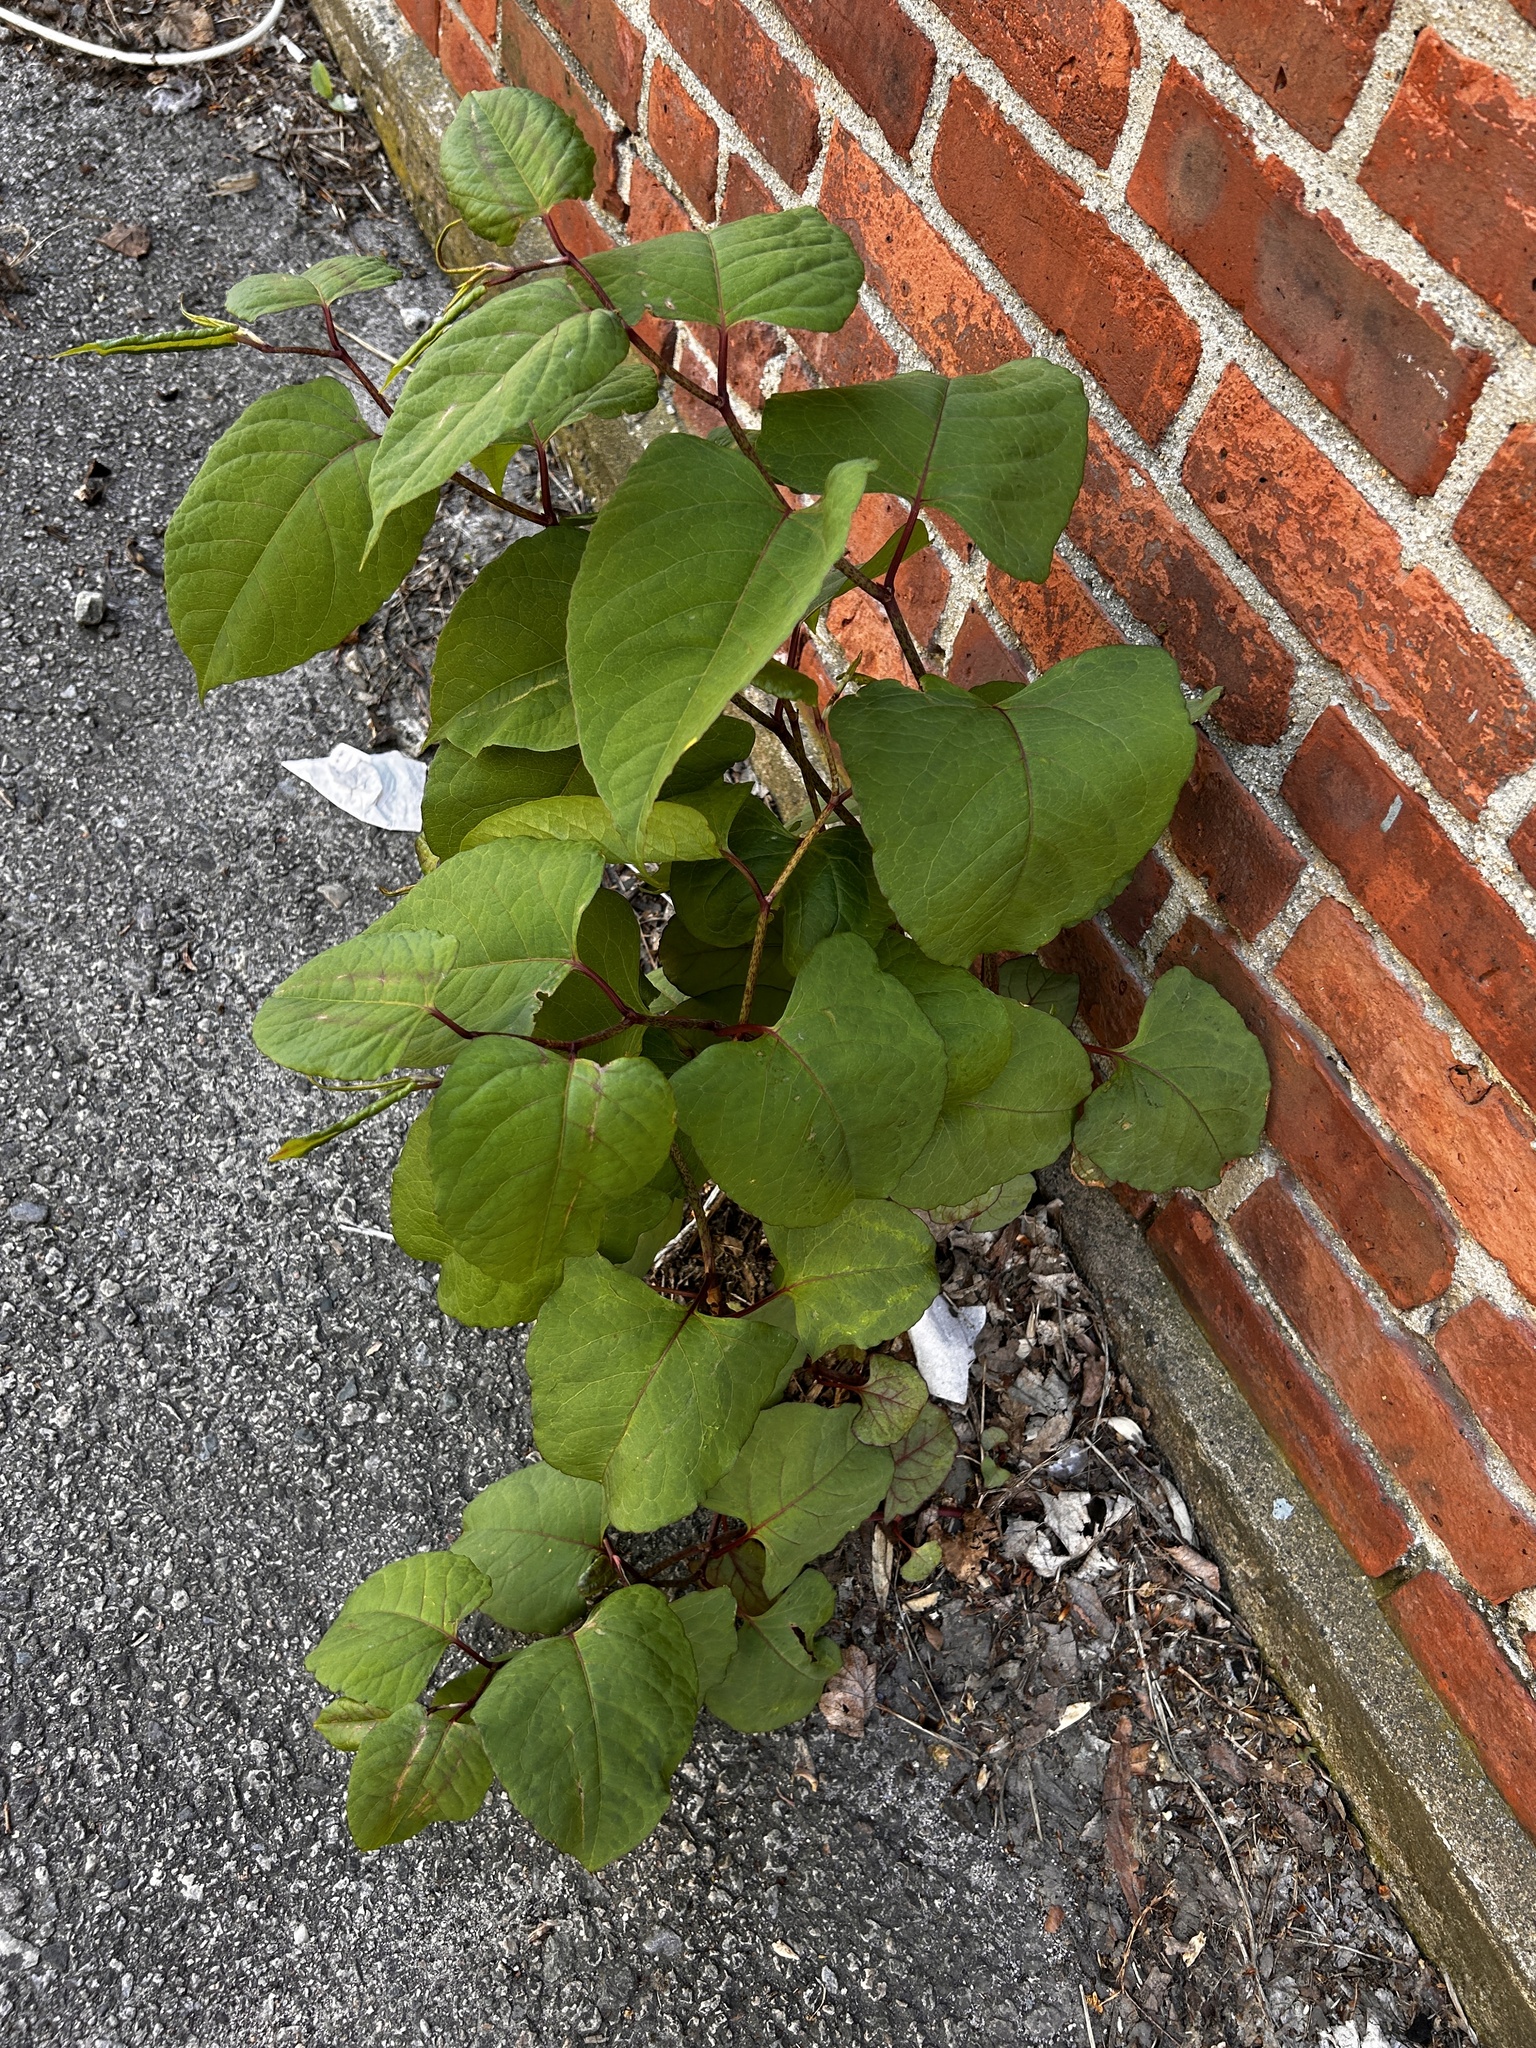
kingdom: Plantae
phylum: Tracheophyta
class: Magnoliopsida
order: Caryophyllales
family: Polygonaceae
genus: Reynoutria
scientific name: Reynoutria japonica
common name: Japanese knotweed
